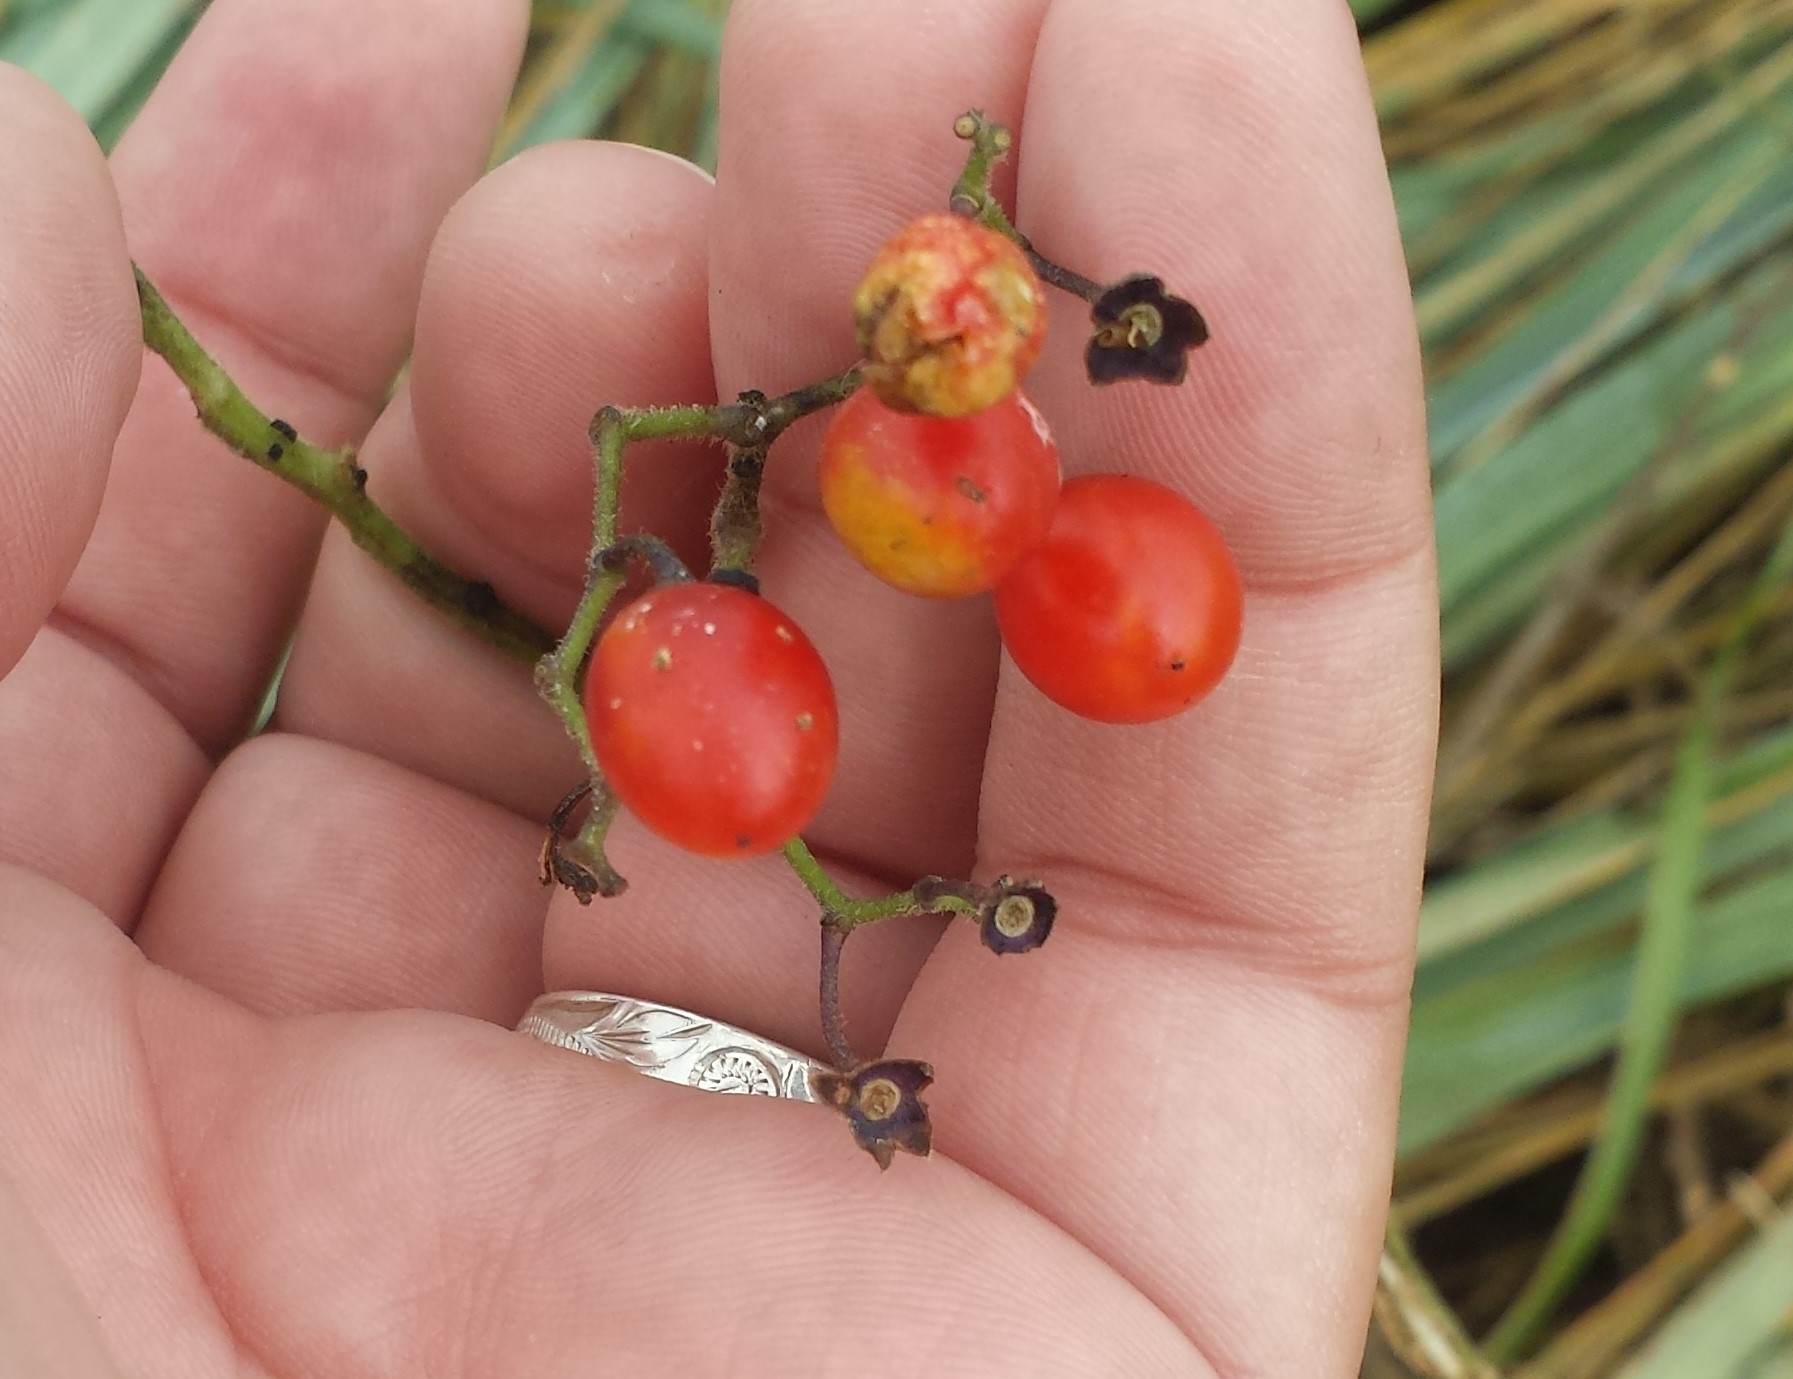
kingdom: Plantae
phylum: Tracheophyta
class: Magnoliopsida
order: Solanales
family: Solanaceae
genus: Solanum
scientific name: Solanum dulcamara
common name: Climbing nightshade
